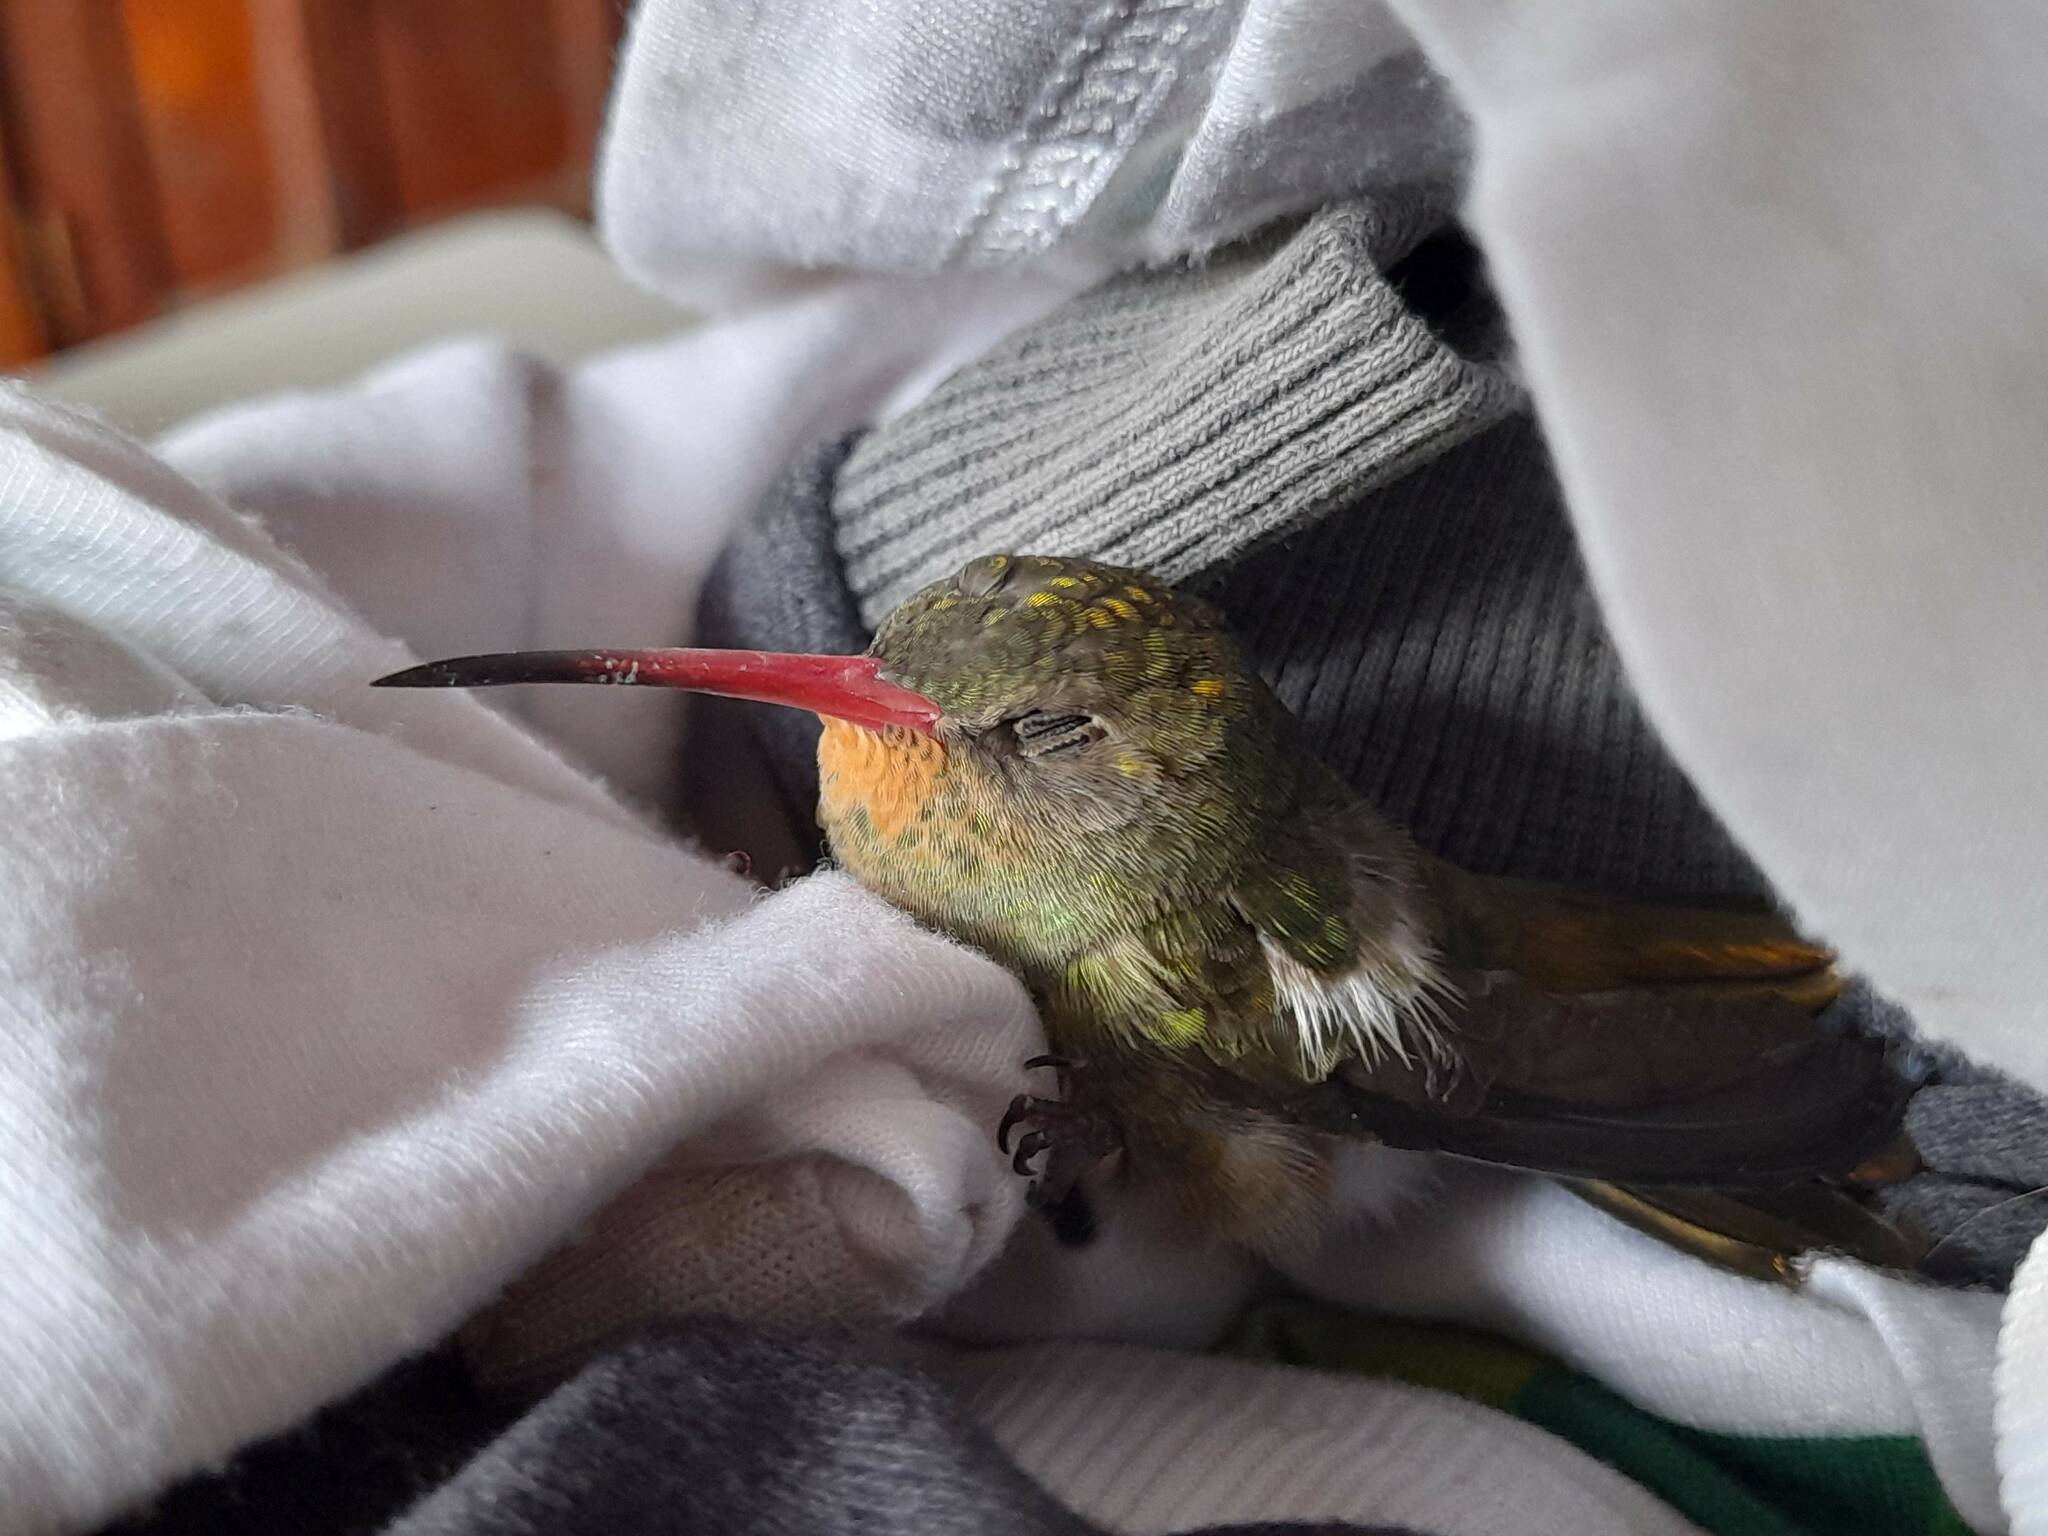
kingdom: Animalia
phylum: Chordata
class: Aves
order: Apodiformes
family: Trochilidae
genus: Hylocharis
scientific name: Hylocharis chrysura
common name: Gilded sapphire
